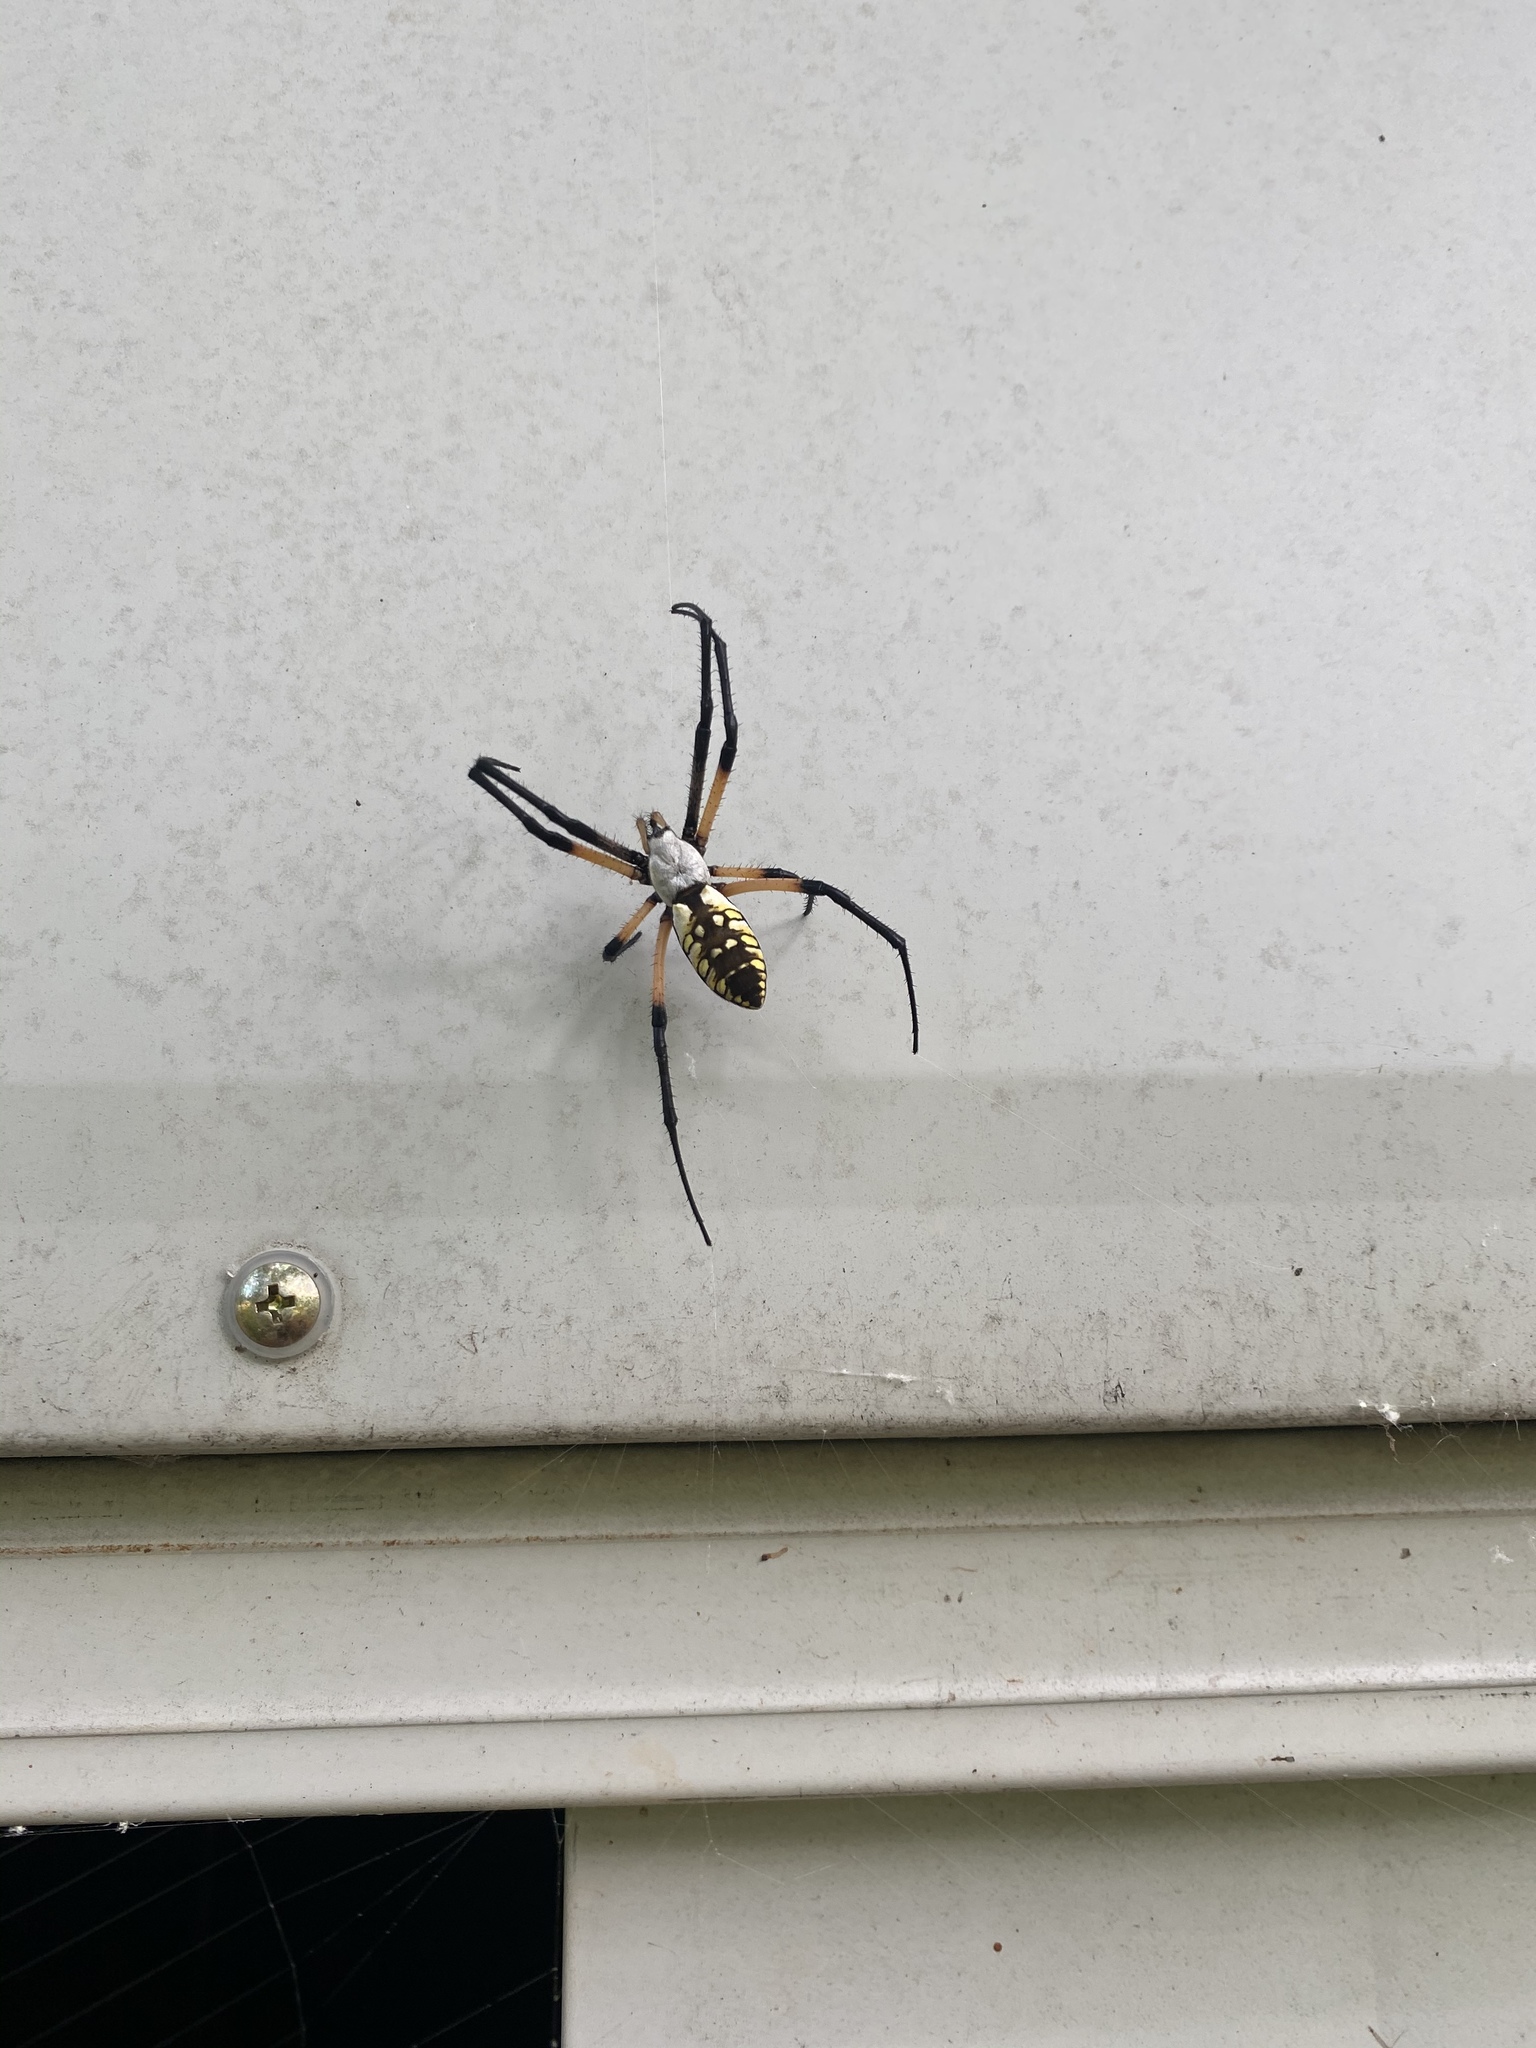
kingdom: Animalia
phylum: Arthropoda
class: Arachnida
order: Araneae
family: Araneidae
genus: Argiope
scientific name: Argiope aurantia
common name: Orb weavers
